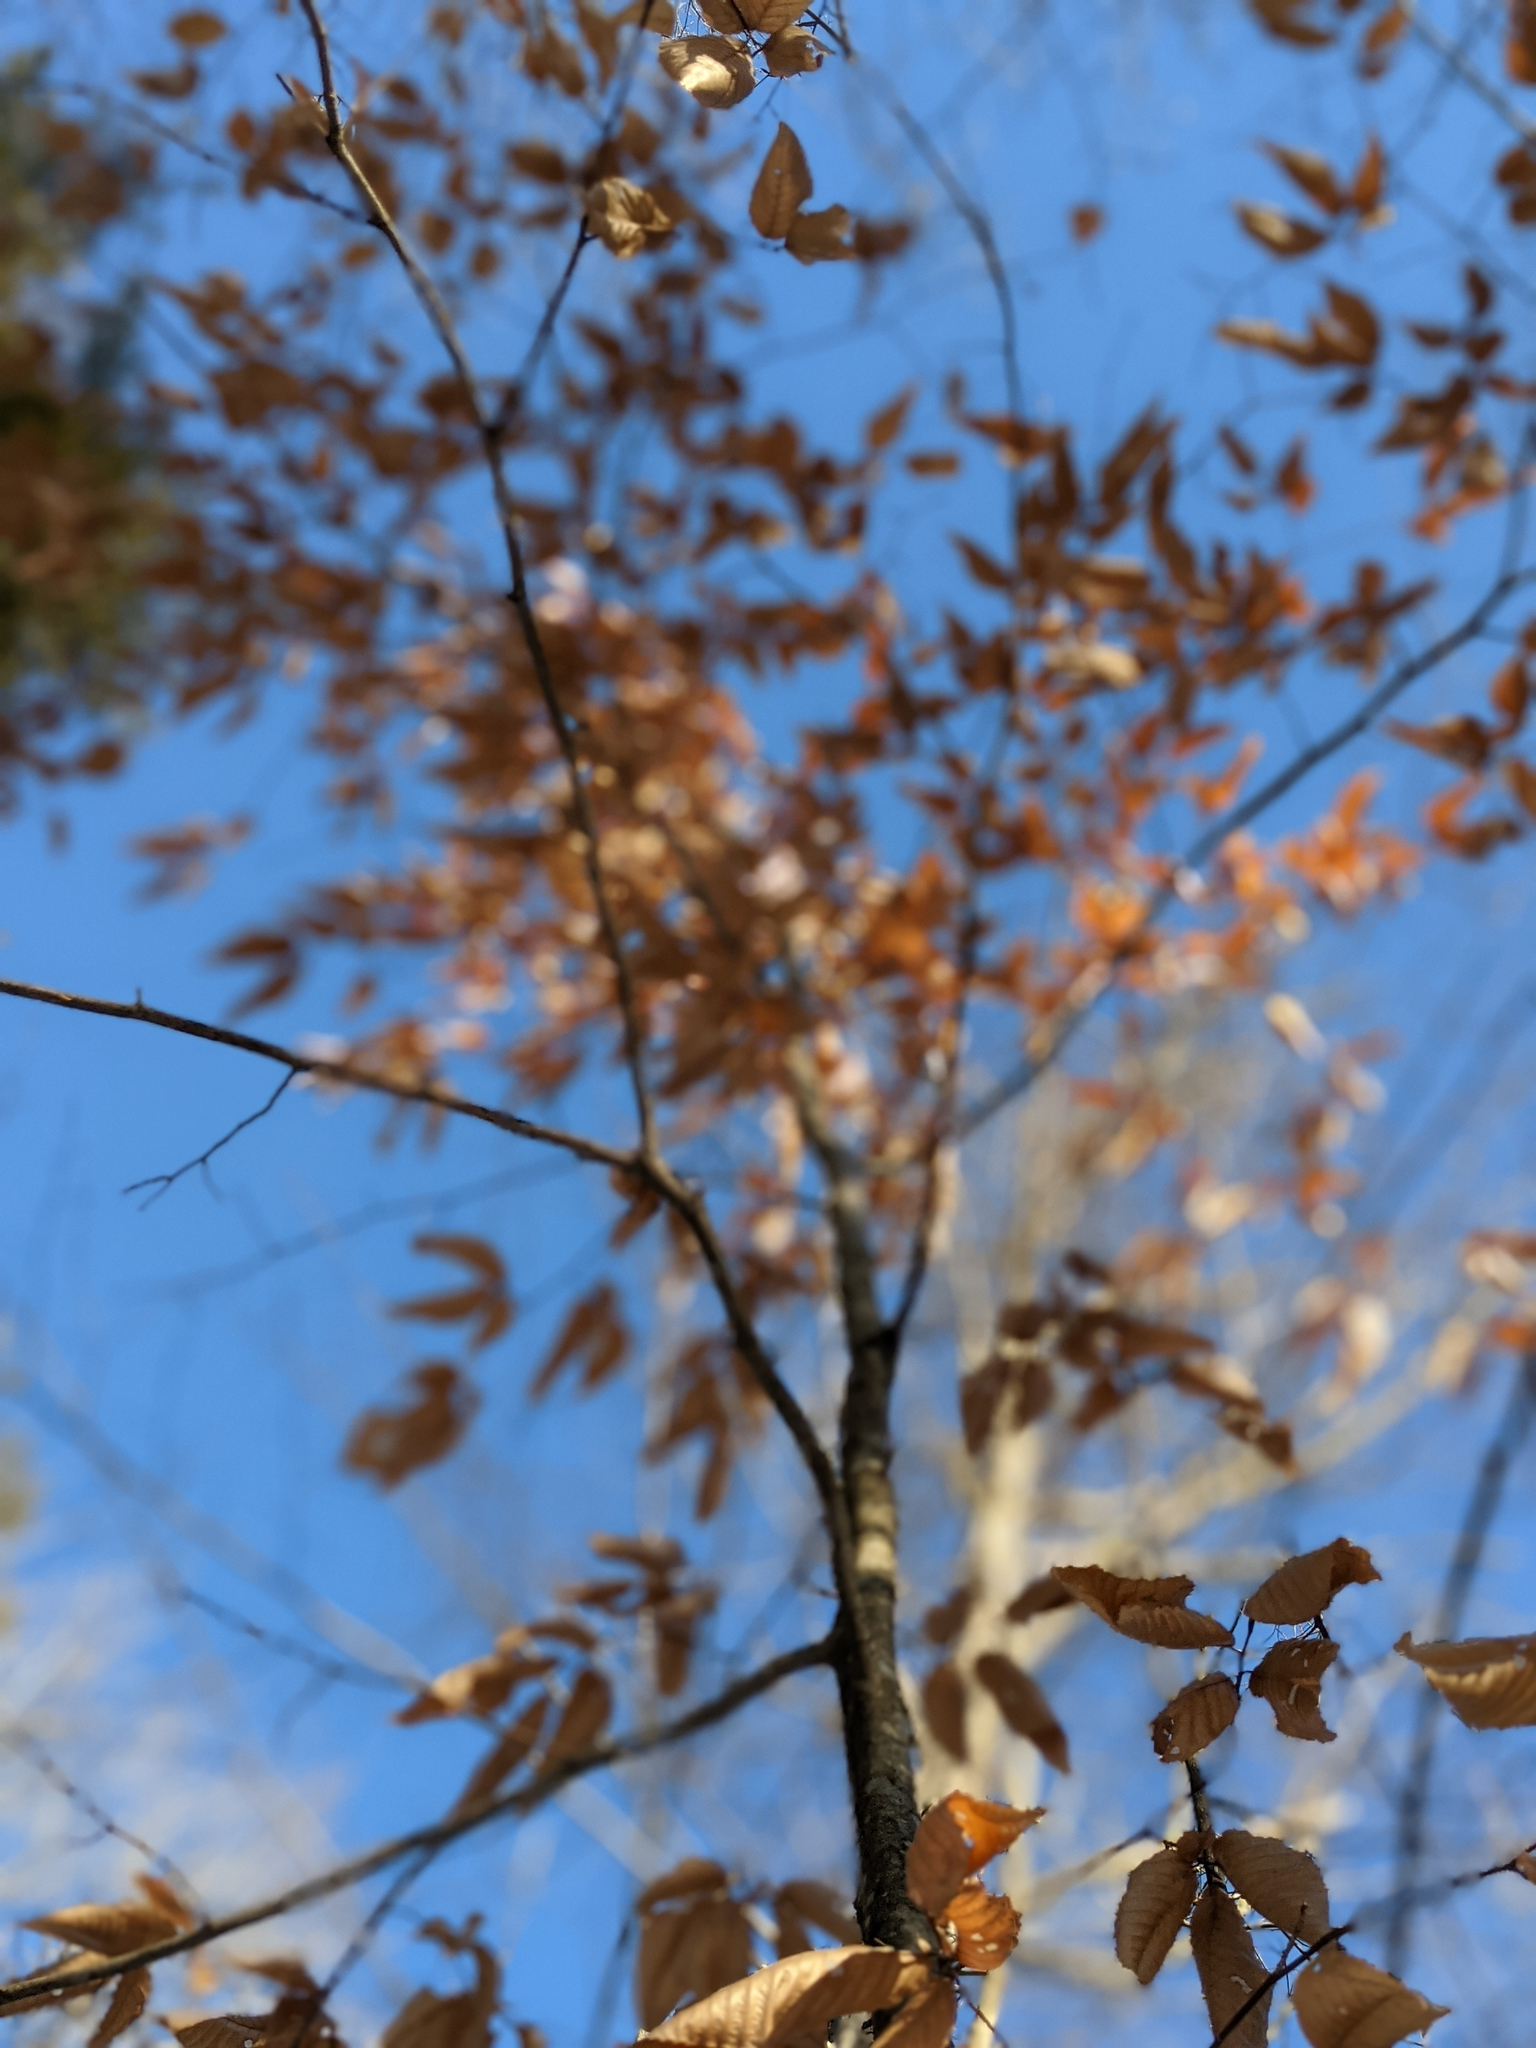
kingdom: Plantae
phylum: Tracheophyta
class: Magnoliopsida
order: Fagales
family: Fagaceae
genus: Fagus
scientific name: Fagus grandifolia
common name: American beech
